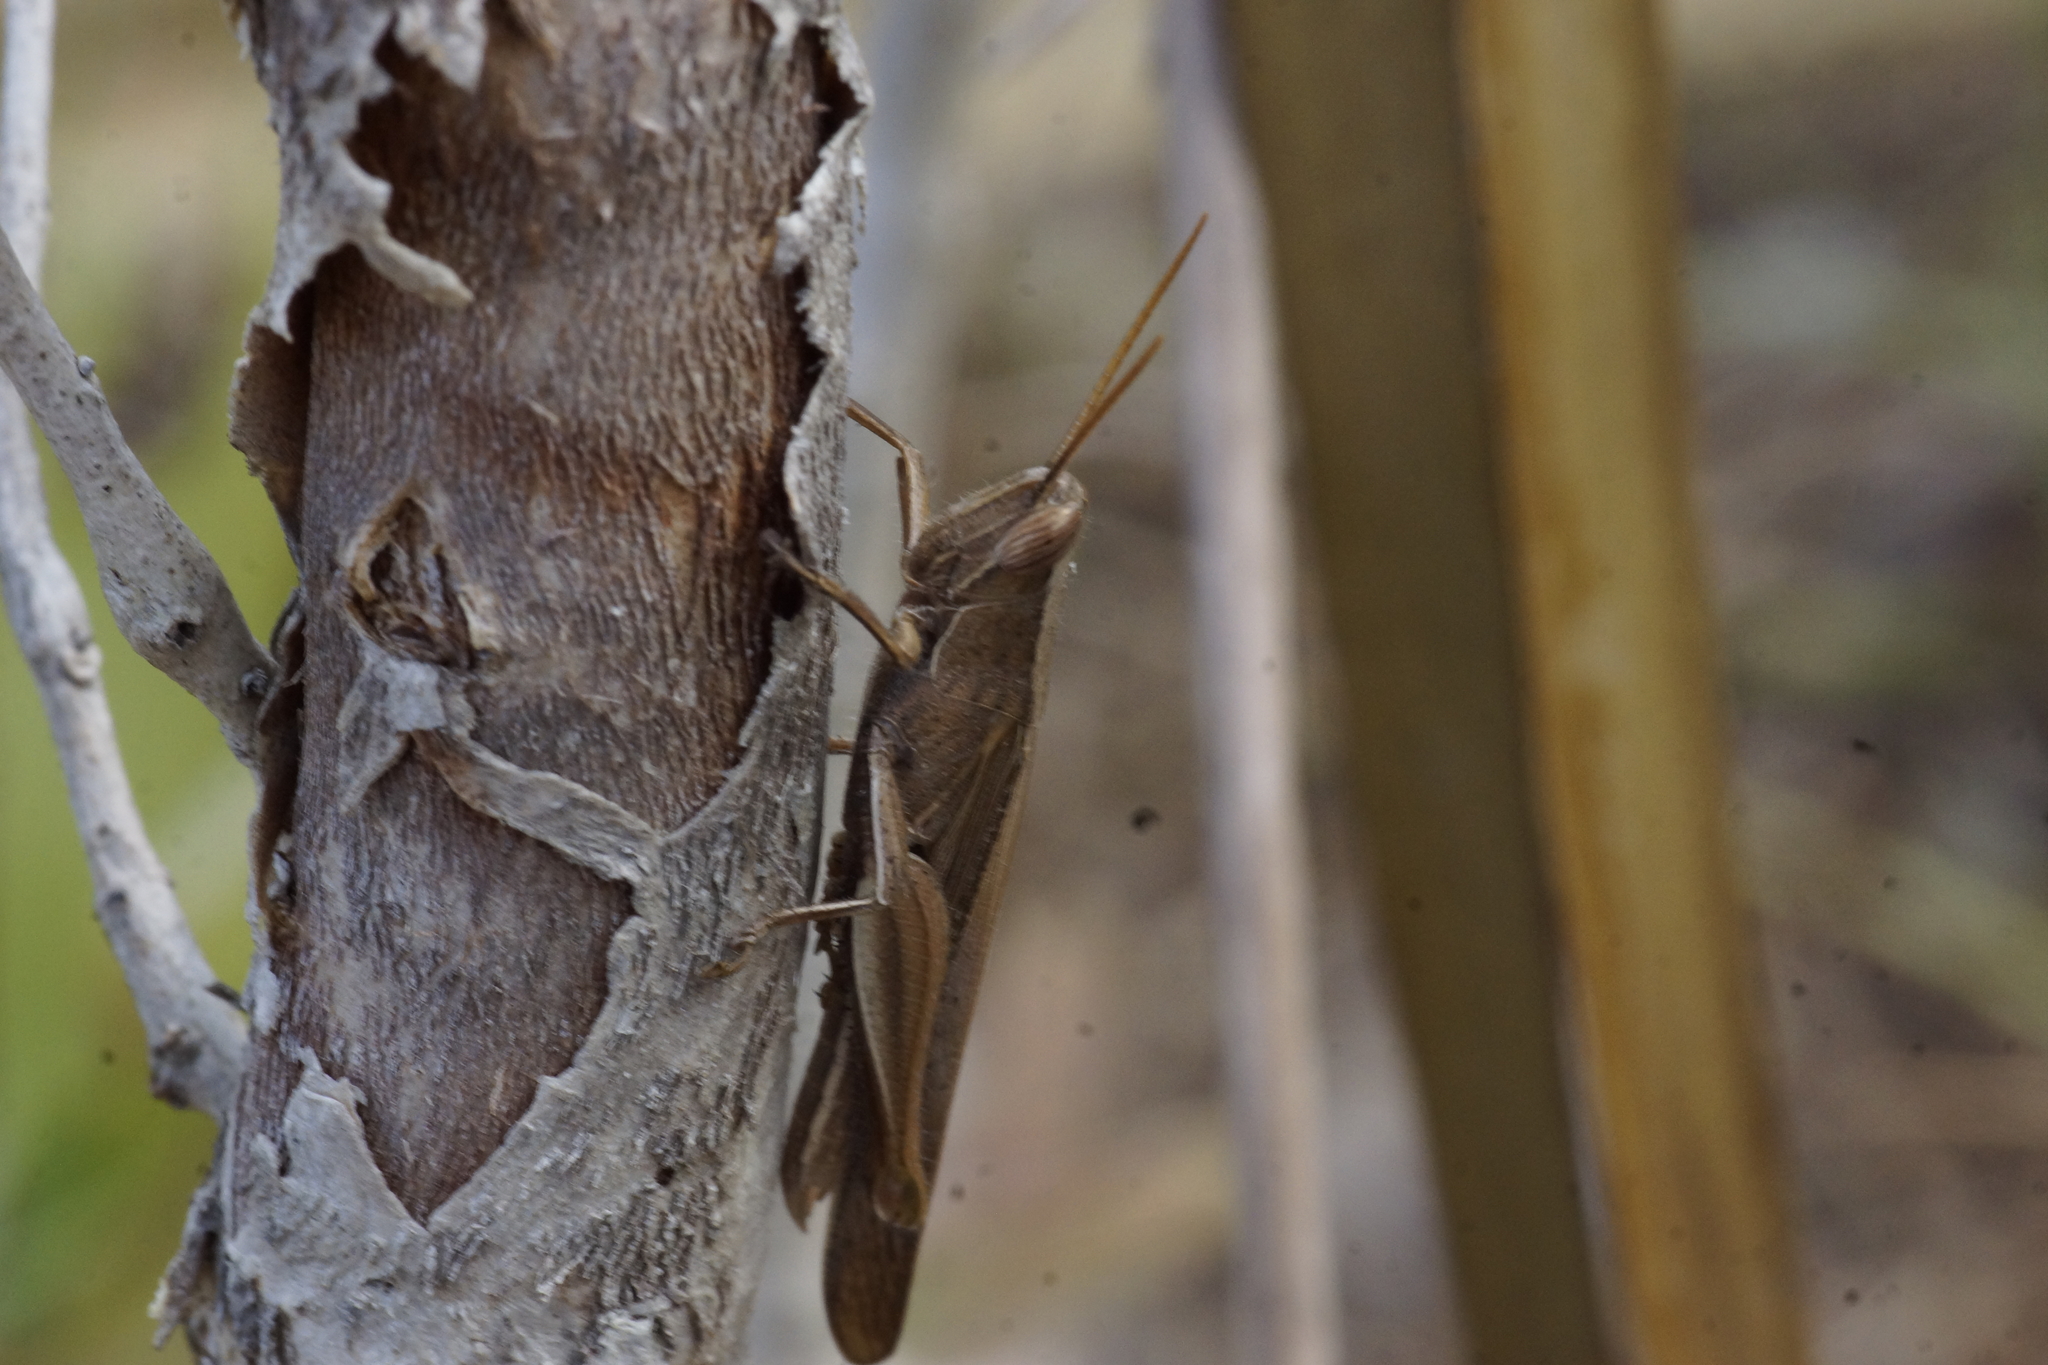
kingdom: Animalia
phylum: Arthropoda
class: Insecta
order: Orthoptera
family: Acrididae
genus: Stenocatantops
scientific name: Stenocatantops vitripennis
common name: Light-brown sharptail
